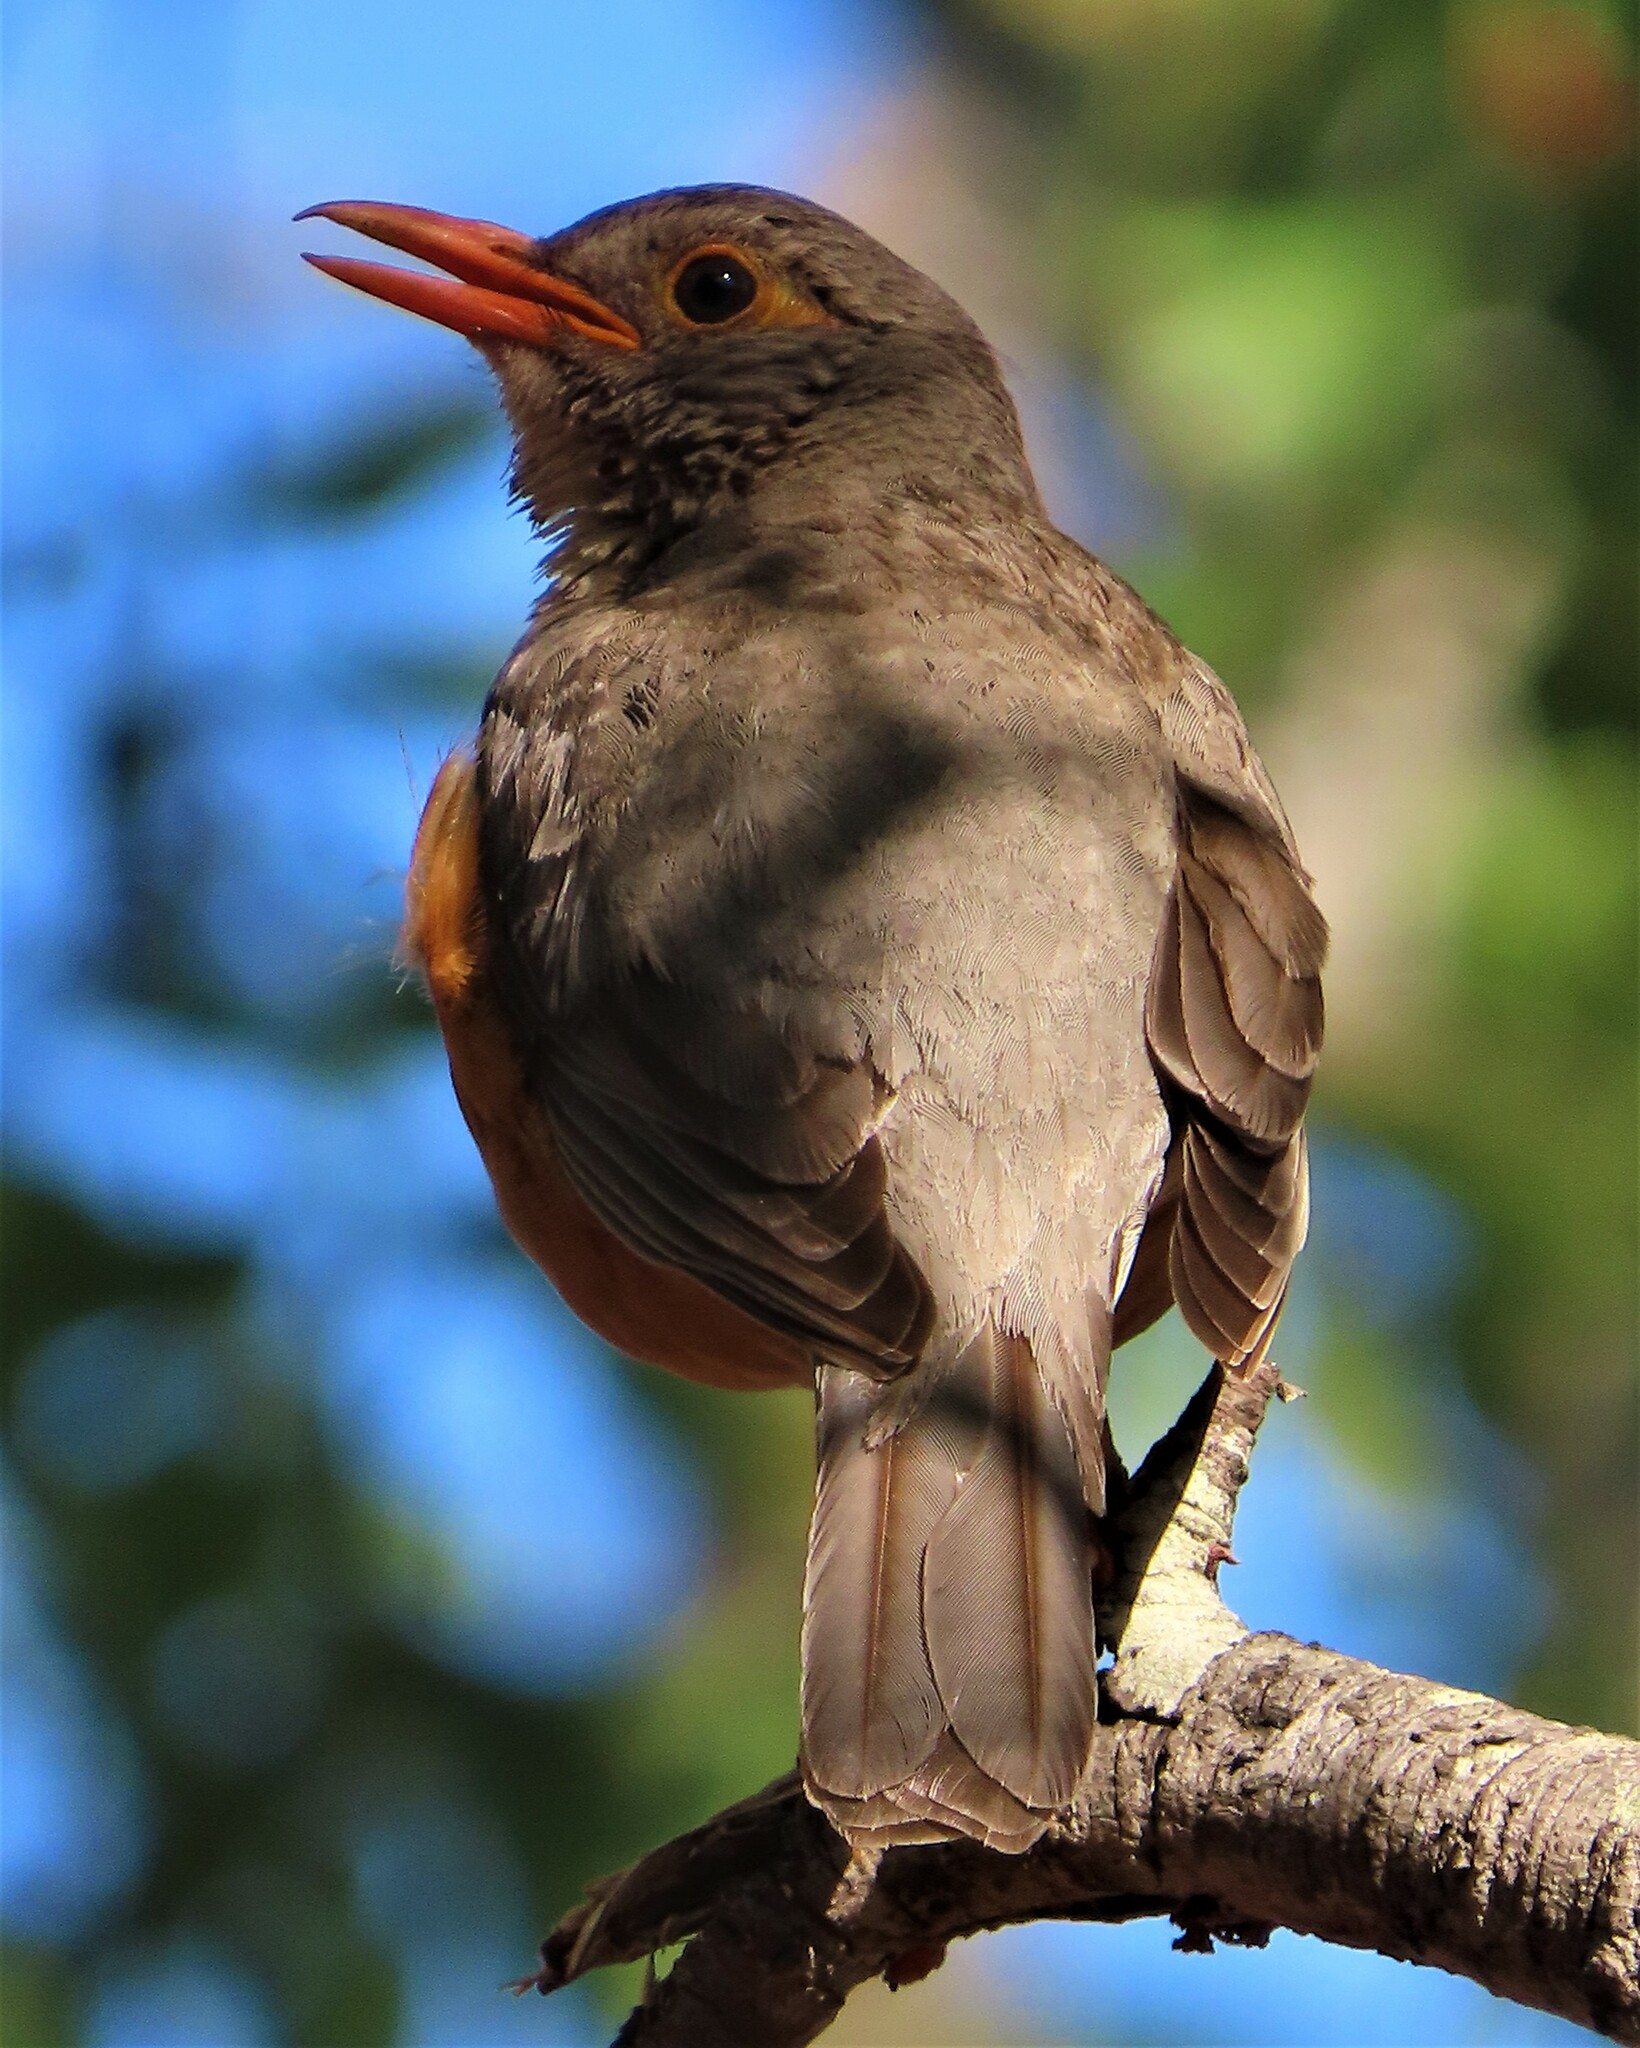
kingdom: Animalia
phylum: Chordata
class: Aves
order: Passeriformes
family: Turdidae
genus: Turdus
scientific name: Turdus libonyana
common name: Kurrichane thrush
